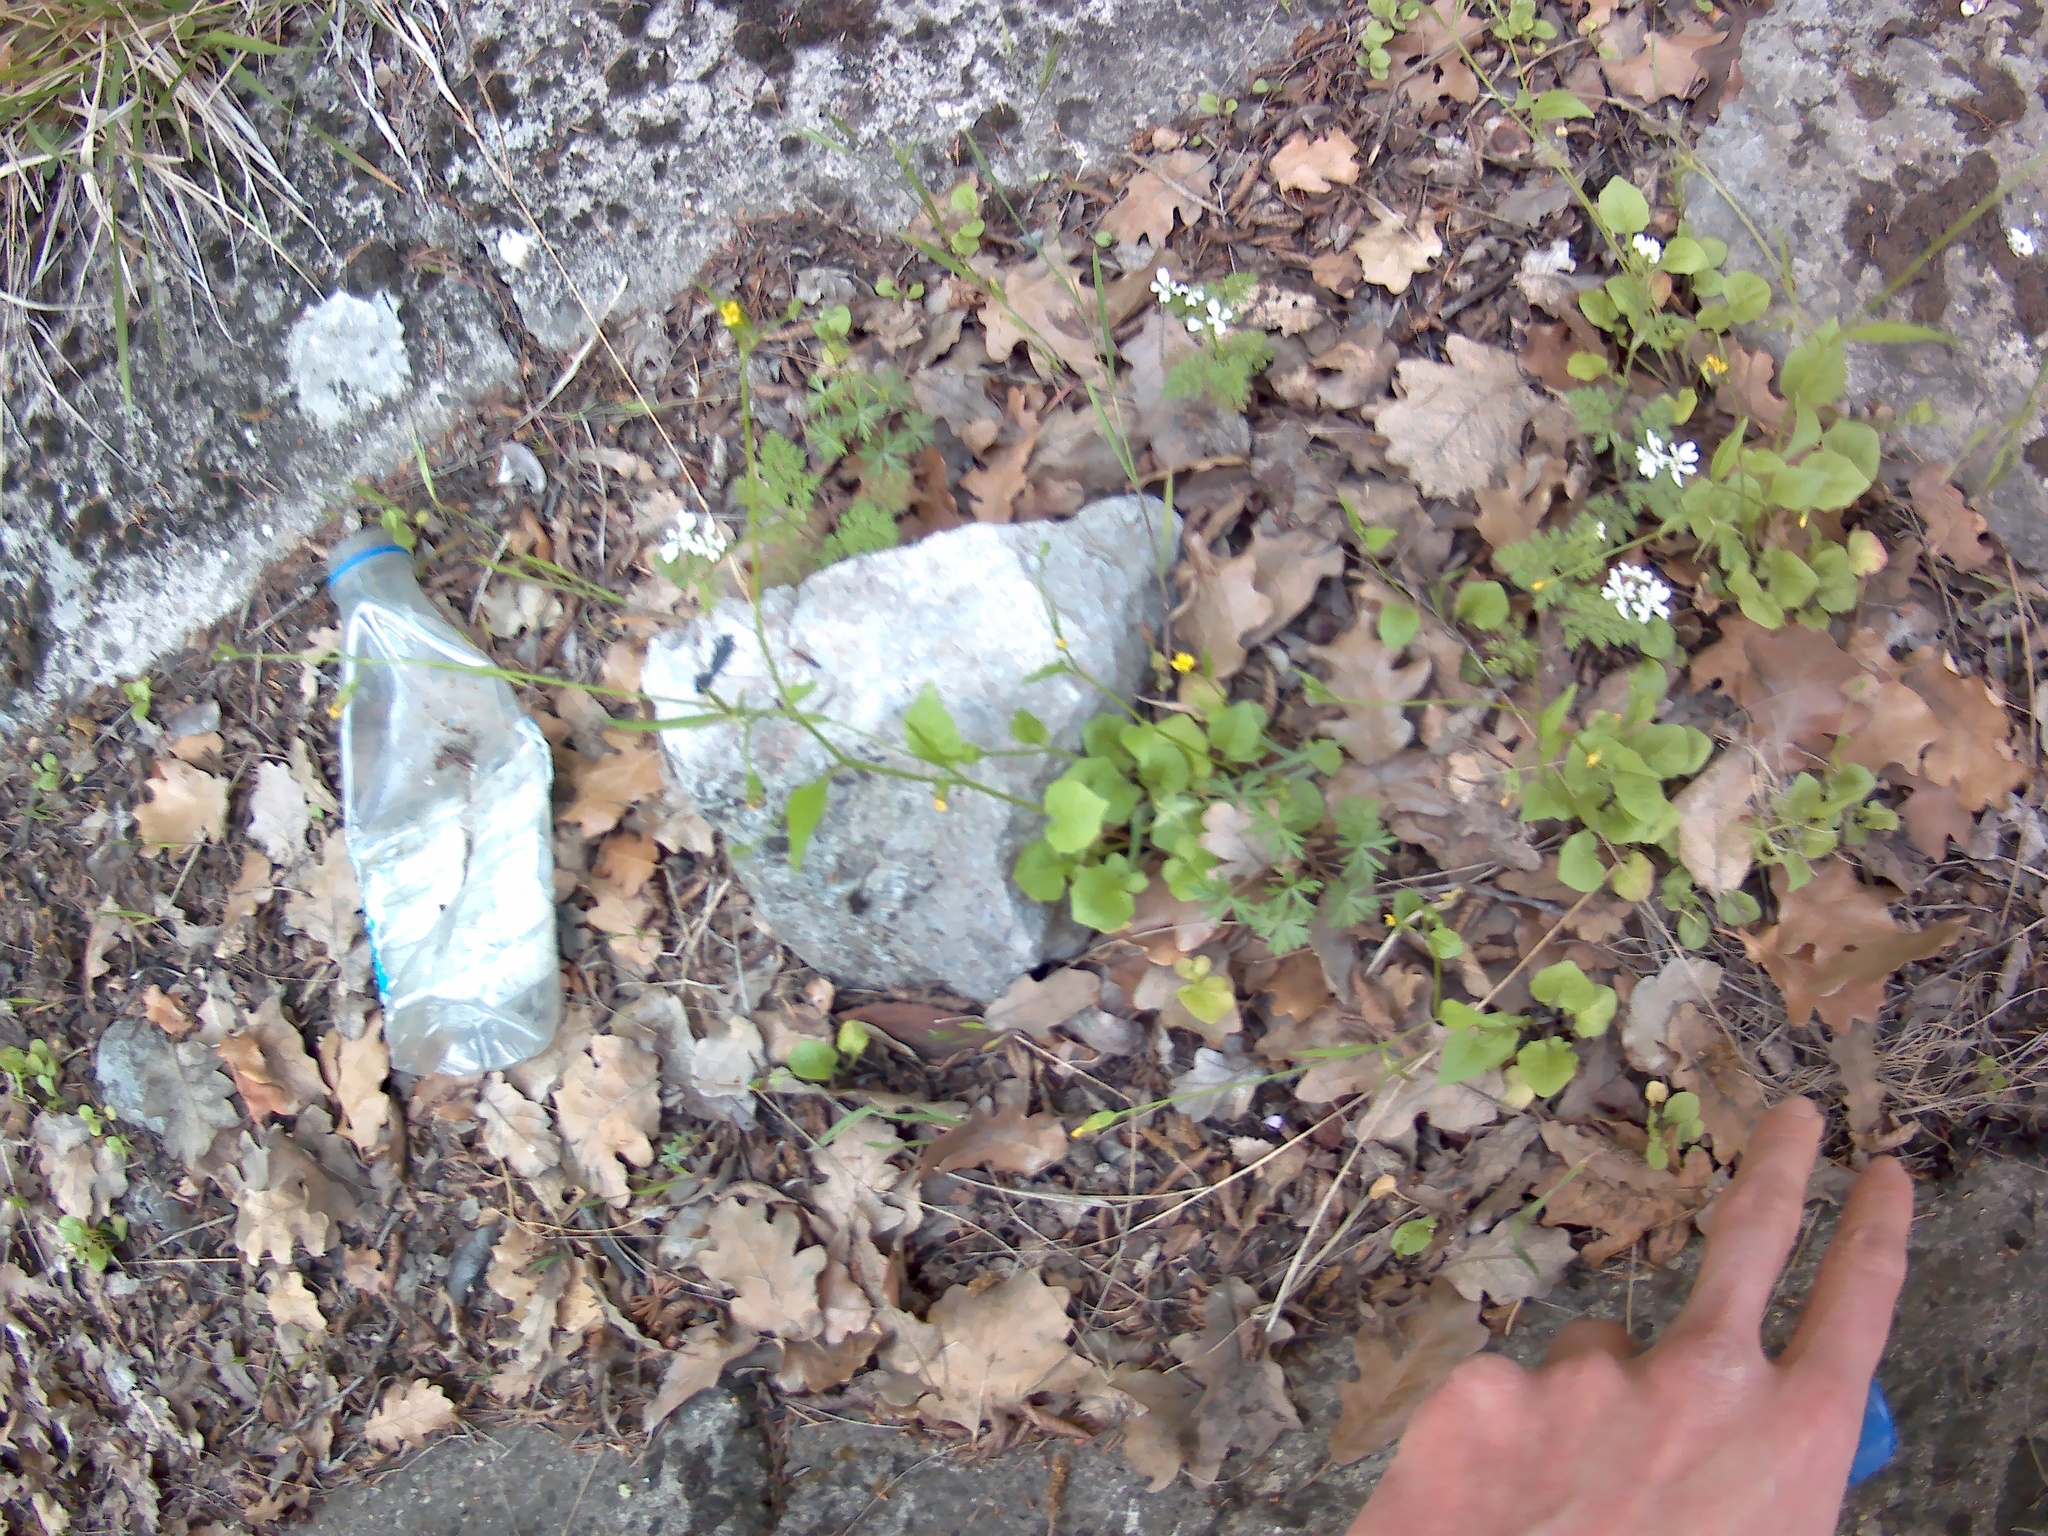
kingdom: Plantae
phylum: Tracheophyta
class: Magnoliopsida
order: Asterales
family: Asteraceae
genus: Lapsana
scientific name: Lapsana communis
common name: Nipplewort
